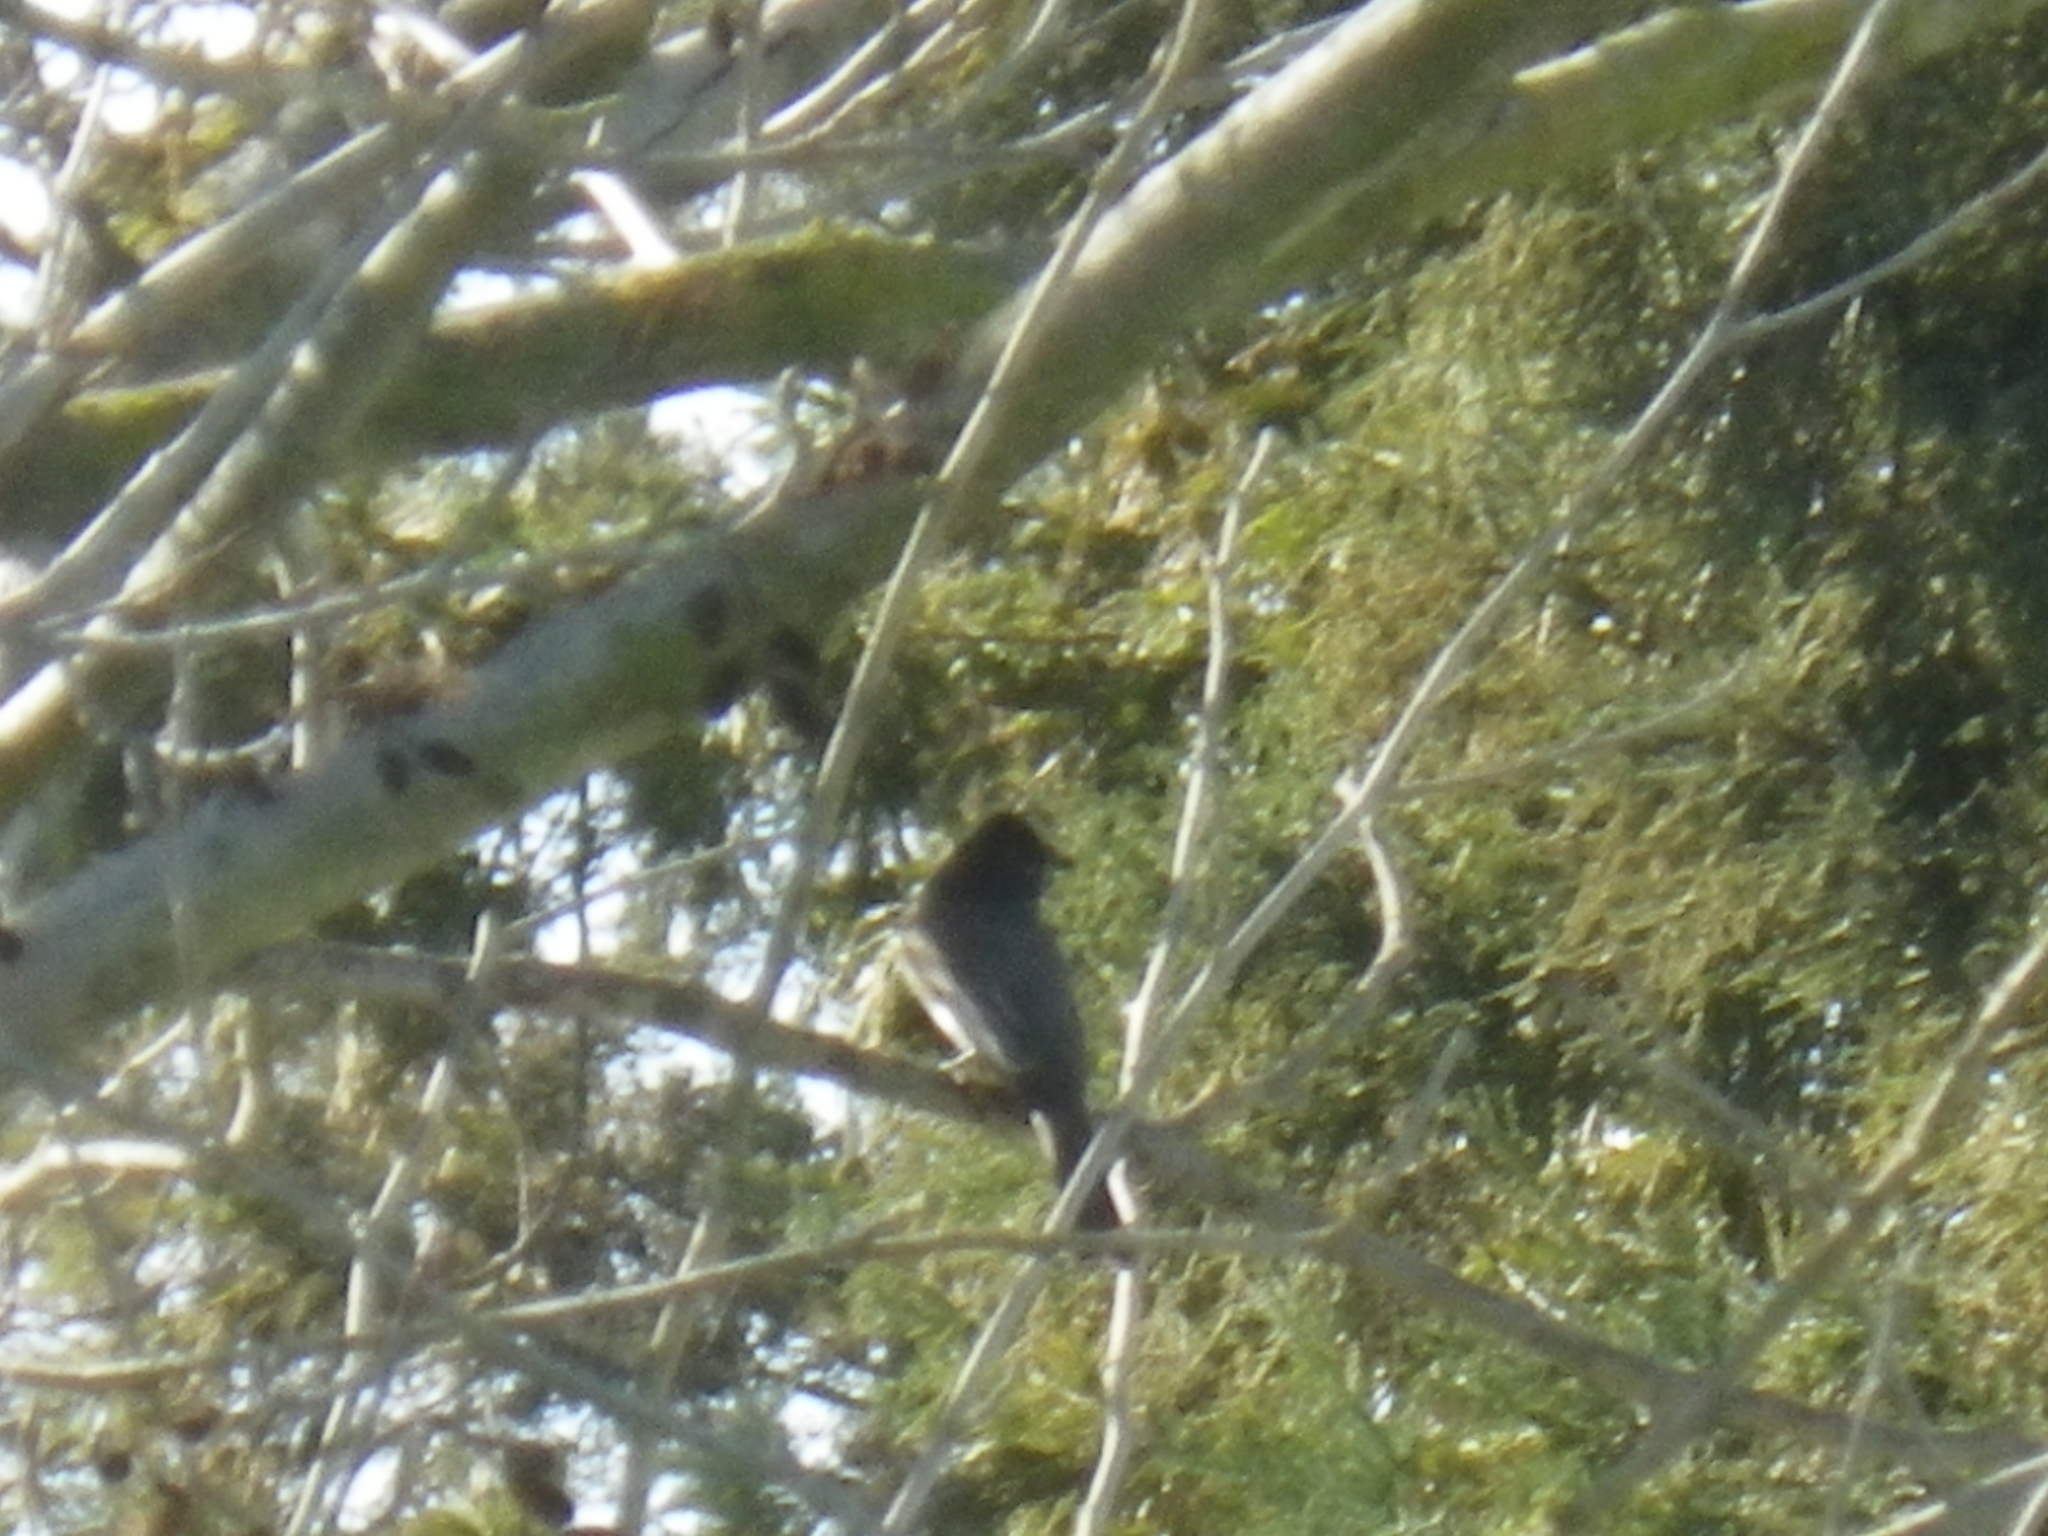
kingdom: Animalia
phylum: Chordata
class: Aves
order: Passeriformes
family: Tyrannidae
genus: Sayornis
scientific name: Sayornis nigricans
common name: Black phoebe
